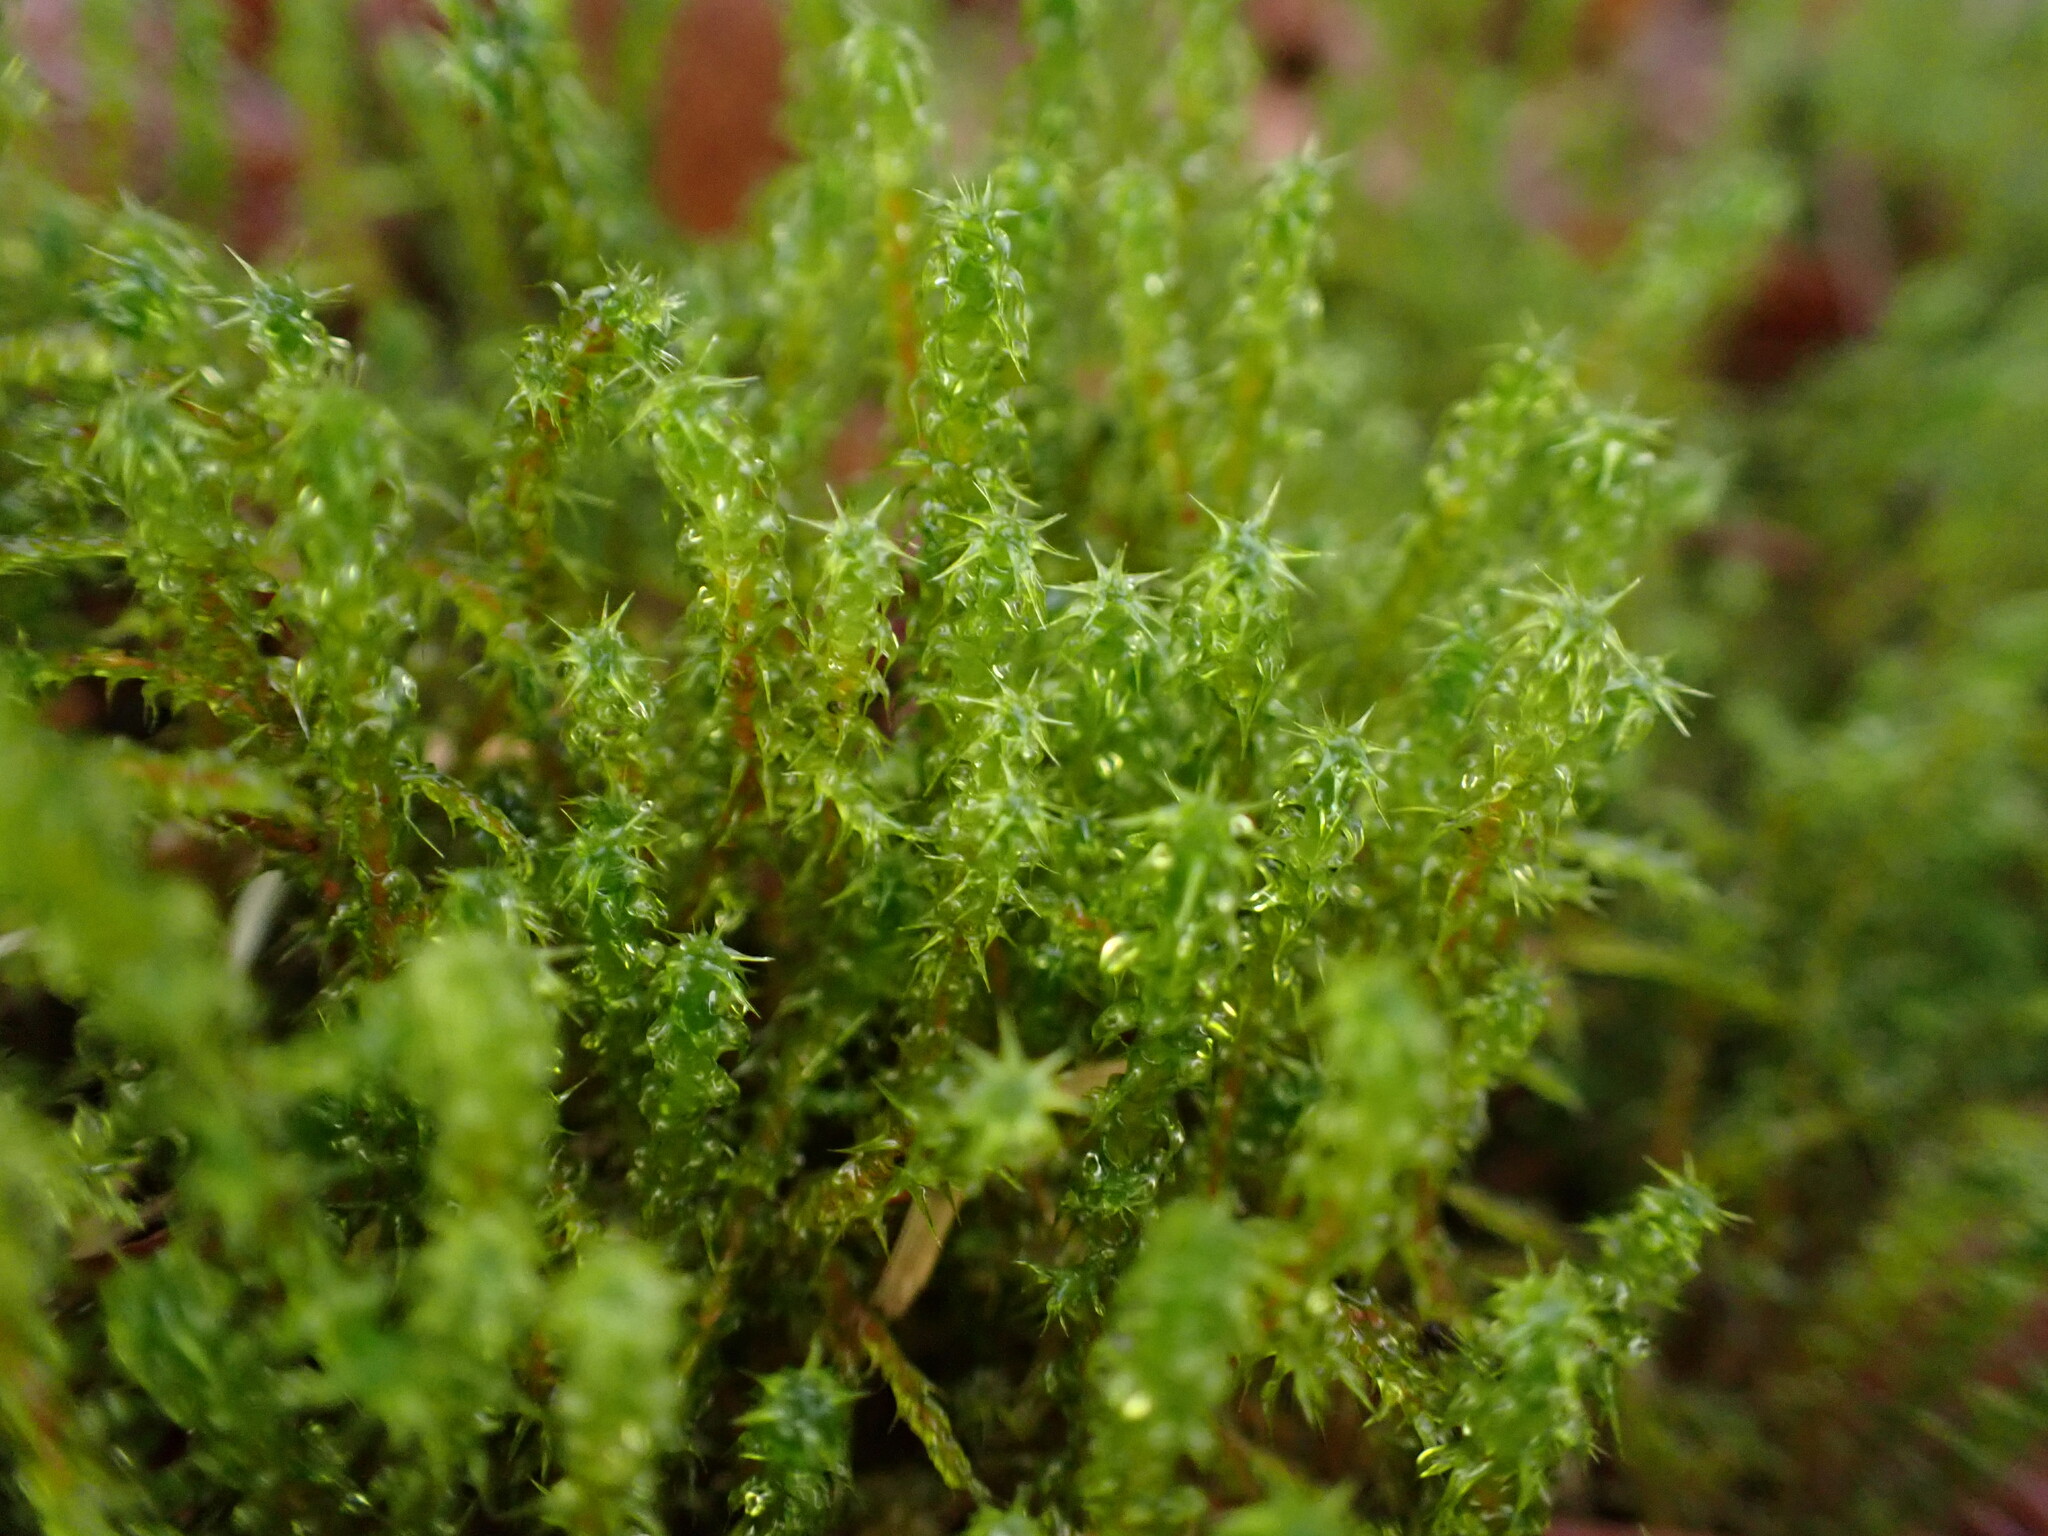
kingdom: Plantae
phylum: Bryophyta
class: Bryopsida
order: Hypnales
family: Hylocomiaceae
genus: Rhytidiadelphus
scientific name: Rhytidiadelphus squarrosus
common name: Springy turf-moss
